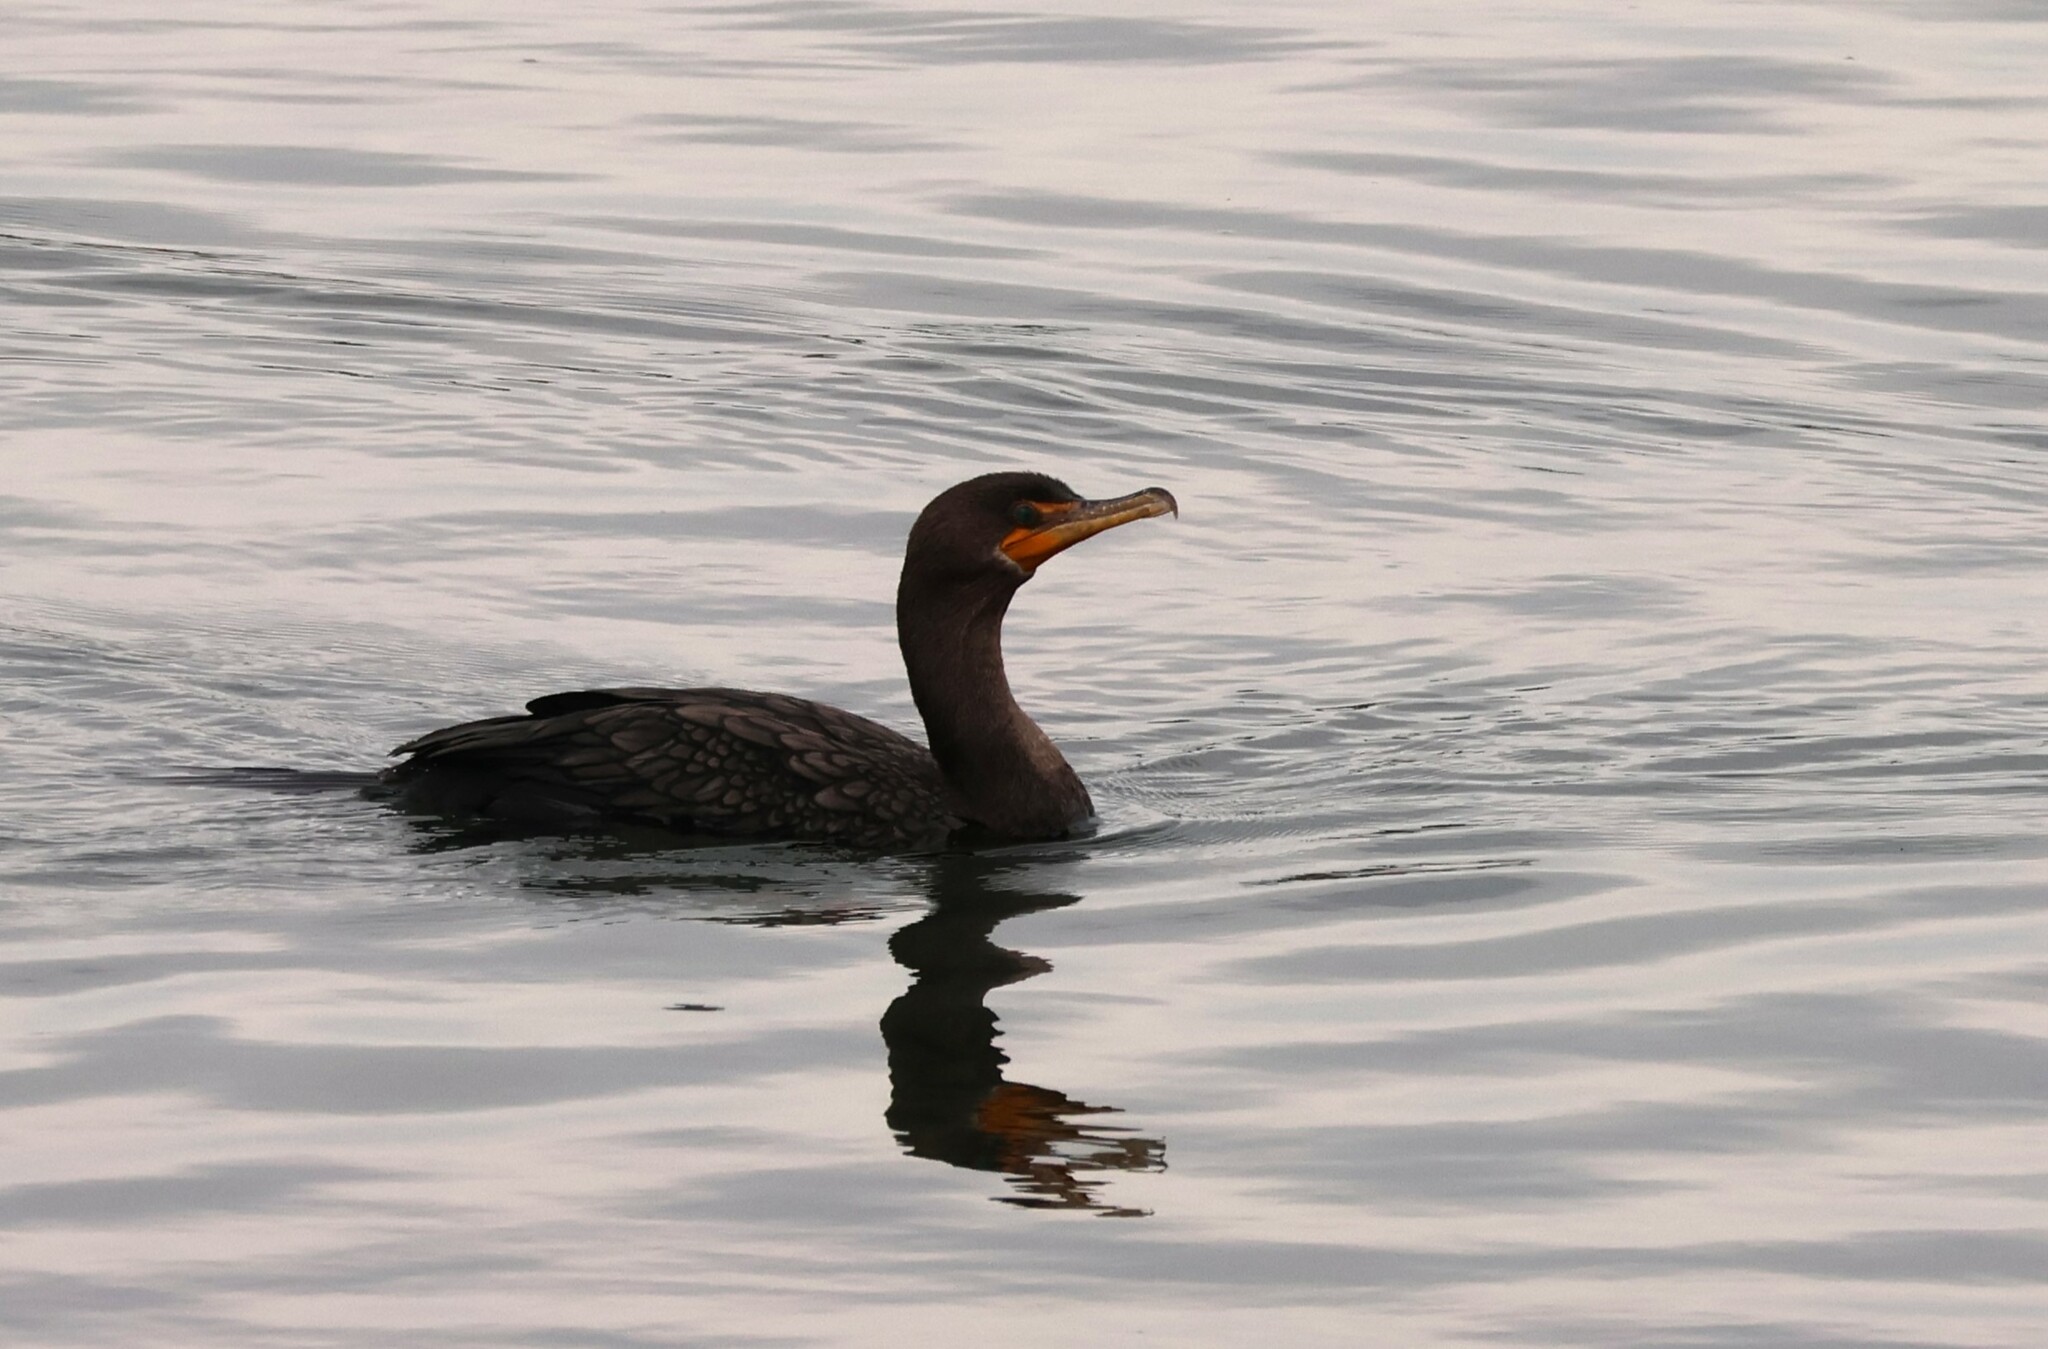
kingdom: Animalia
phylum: Chordata
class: Aves
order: Suliformes
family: Phalacrocoracidae
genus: Phalacrocorax
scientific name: Phalacrocorax auritus
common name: Double-crested cormorant
